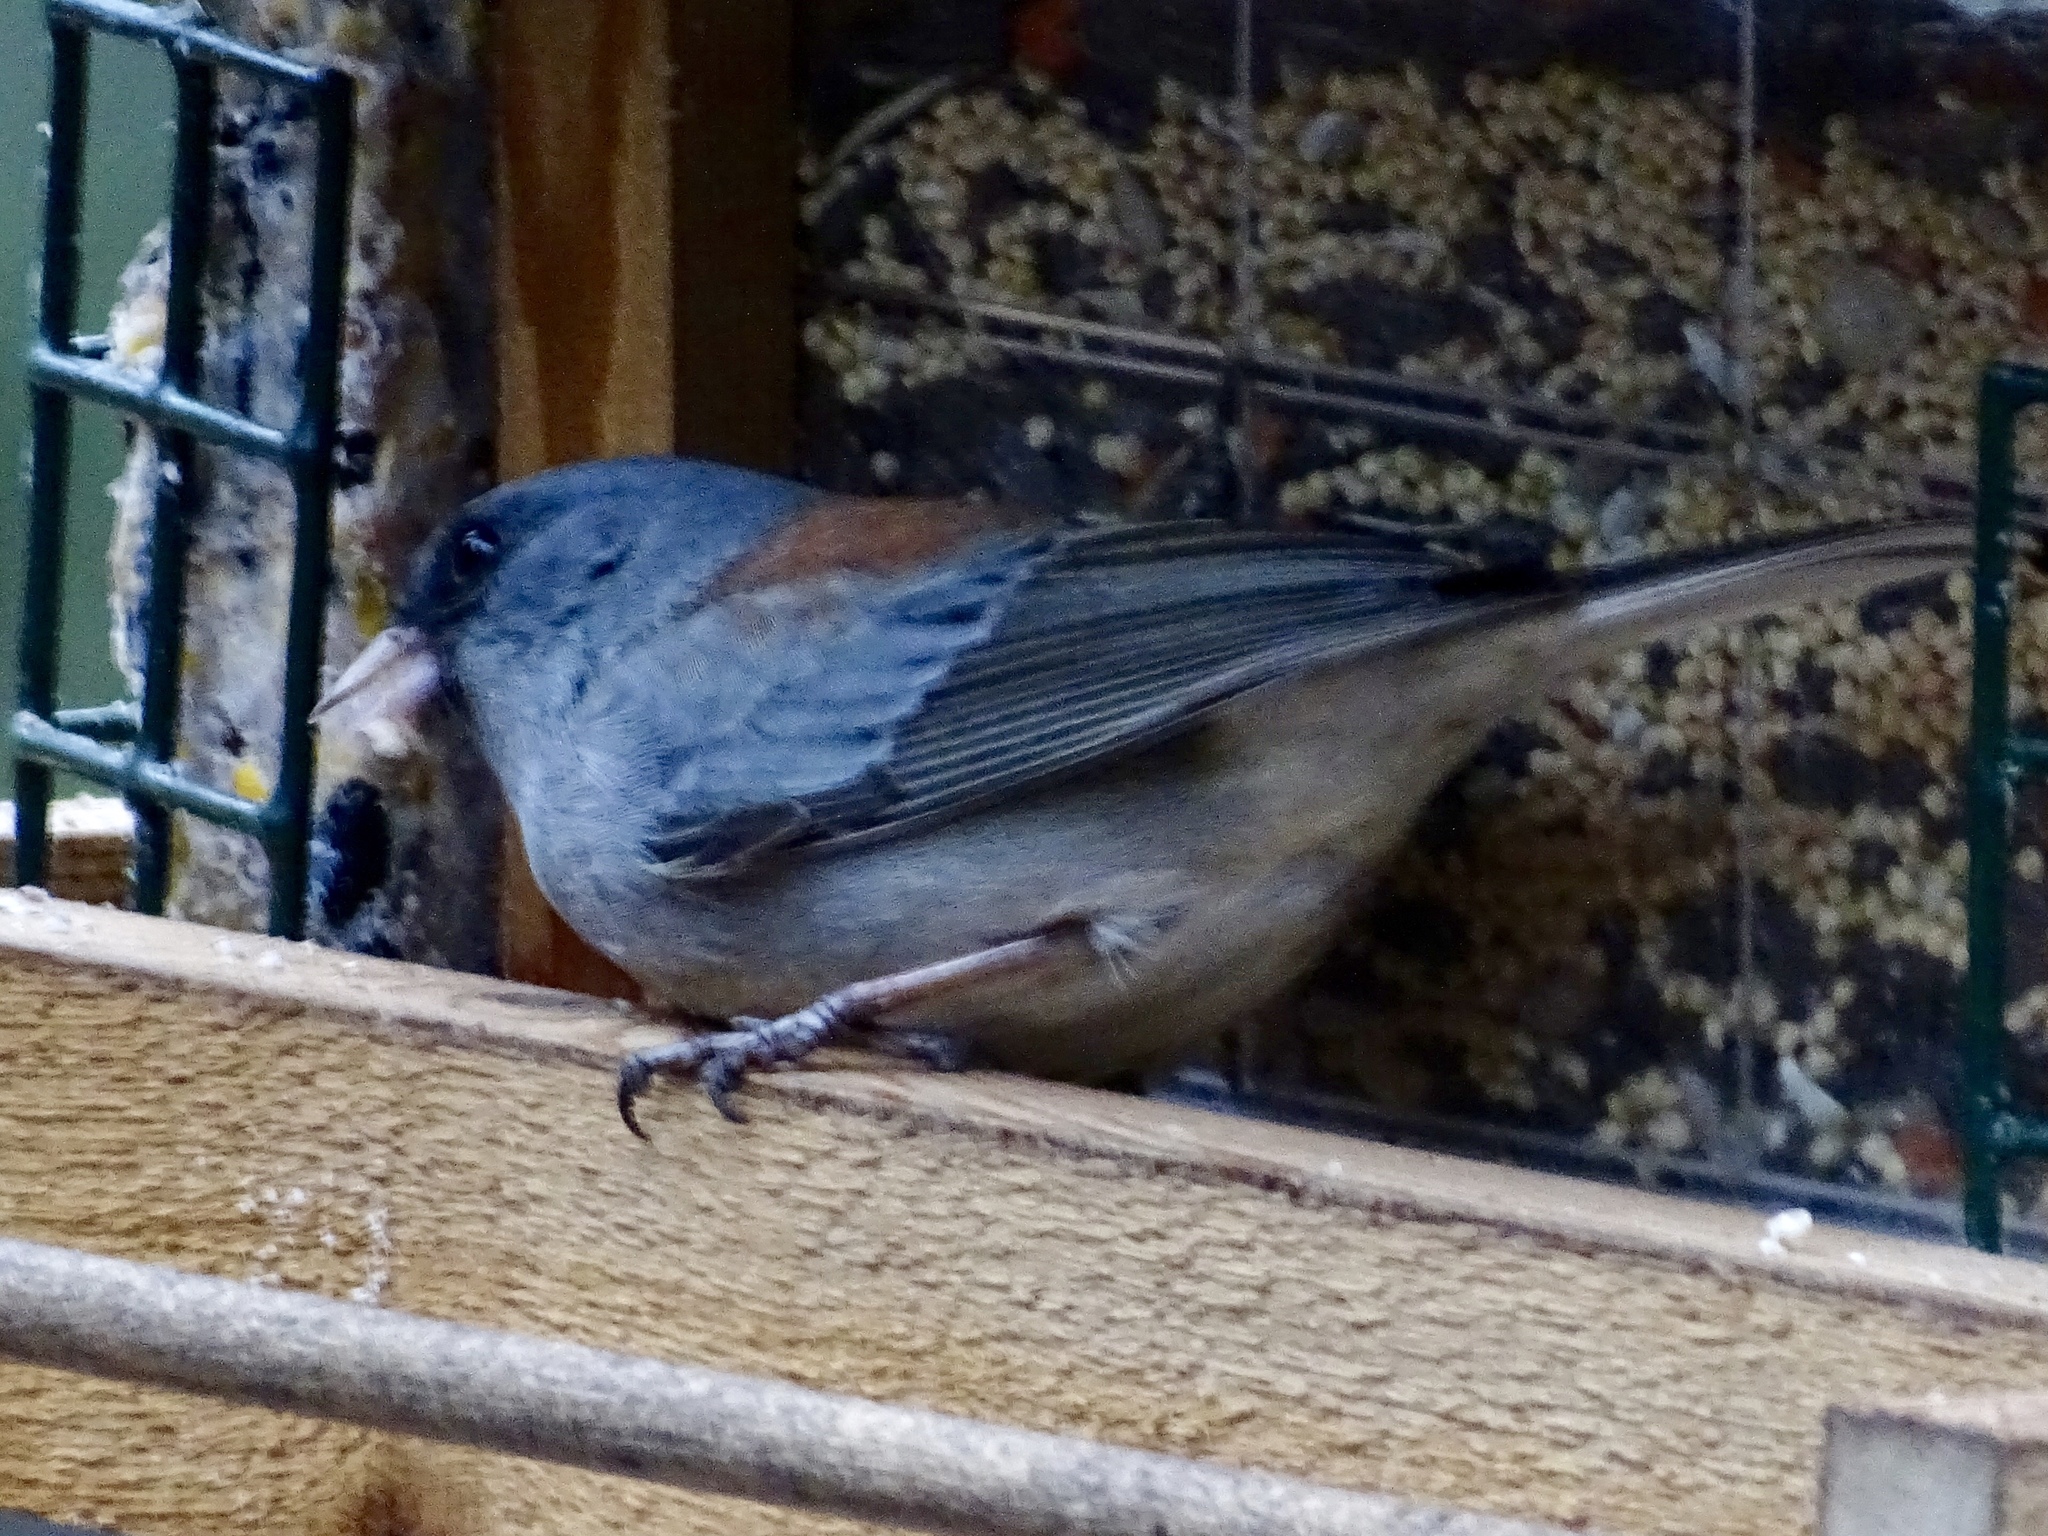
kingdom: Animalia
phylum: Chordata
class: Aves
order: Passeriformes
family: Passerellidae
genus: Junco
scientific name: Junco hyemalis
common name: Dark-eyed junco
